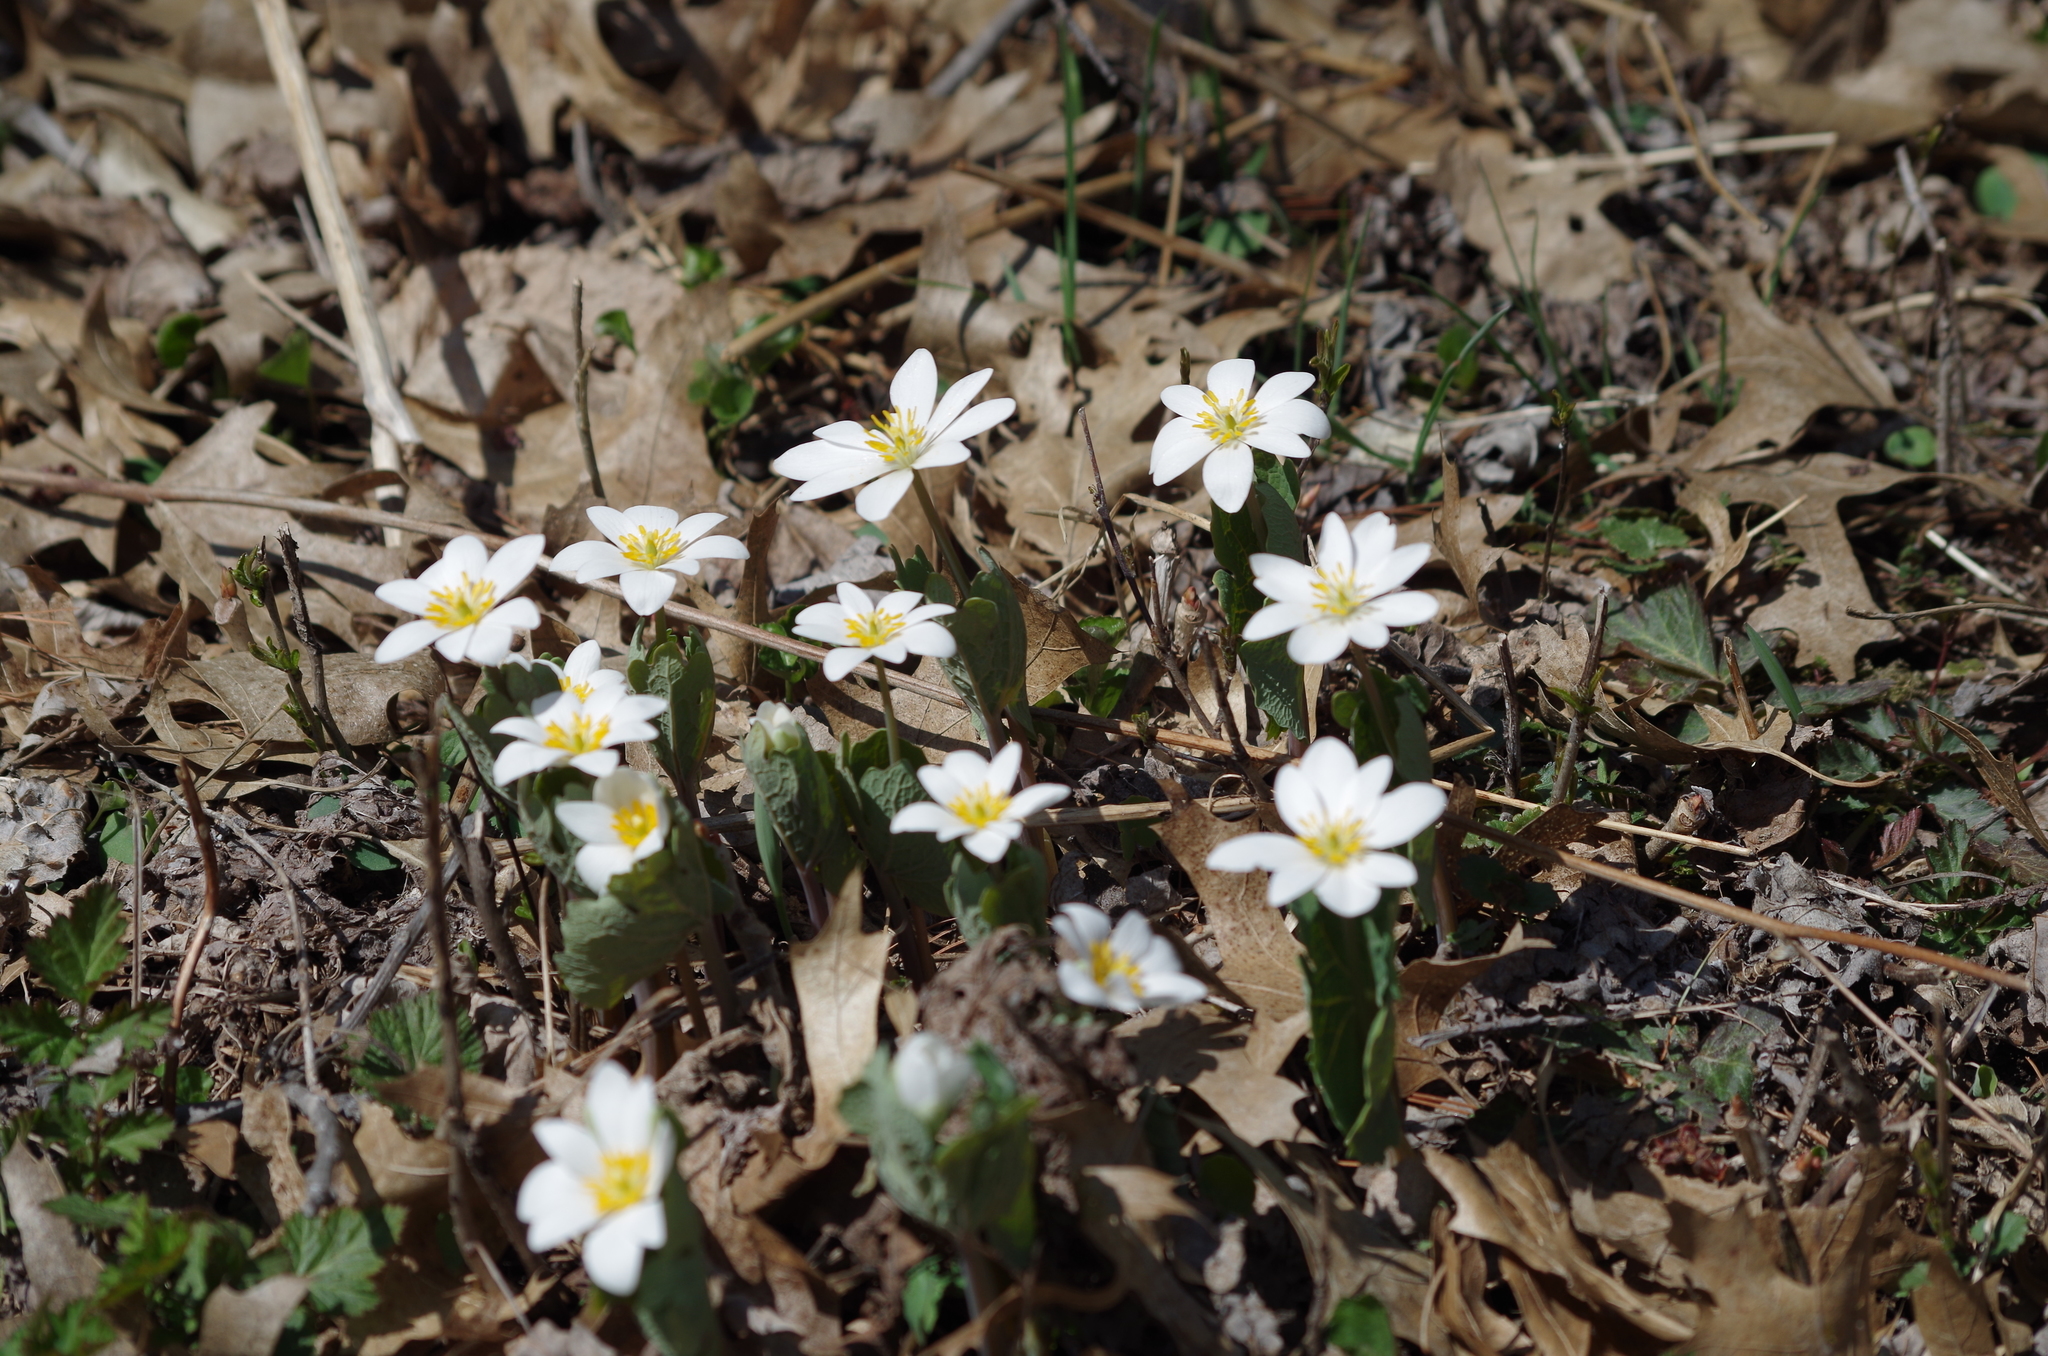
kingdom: Plantae
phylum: Tracheophyta
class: Magnoliopsida
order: Ranunculales
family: Papaveraceae
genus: Sanguinaria
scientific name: Sanguinaria canadensis
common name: Bloodroot
